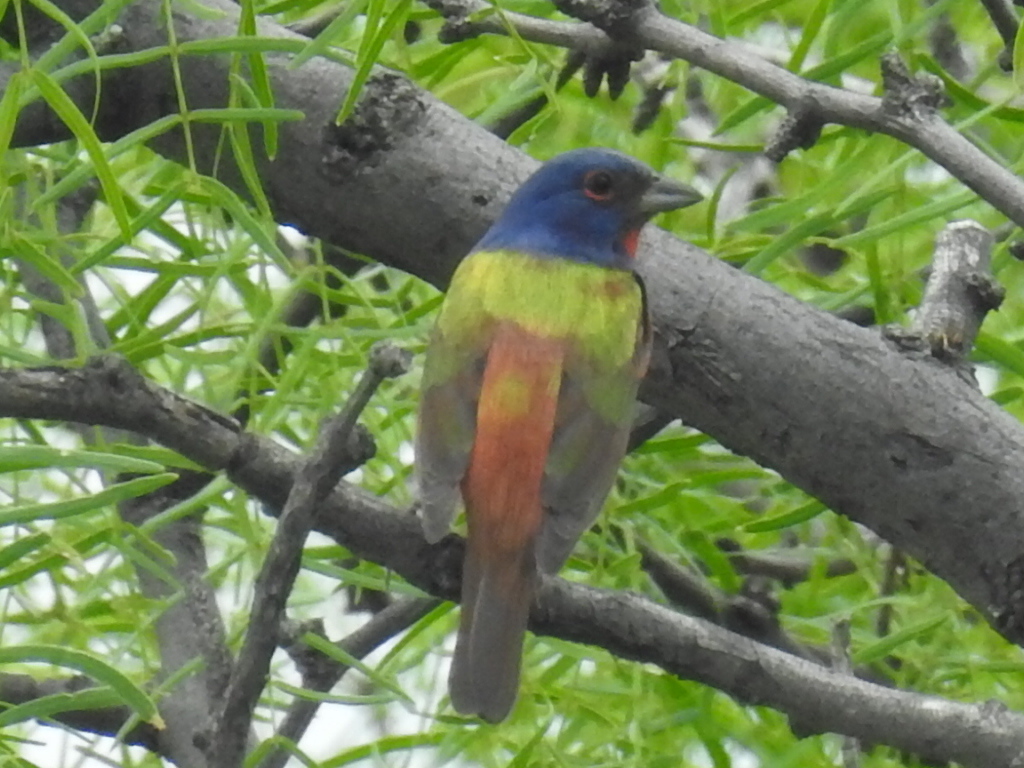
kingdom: Animalia
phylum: Chordata
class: Aves
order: Passeriformes
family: Cardinalidae
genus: Passerina
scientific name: Passerina ciris
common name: Painted bunting
